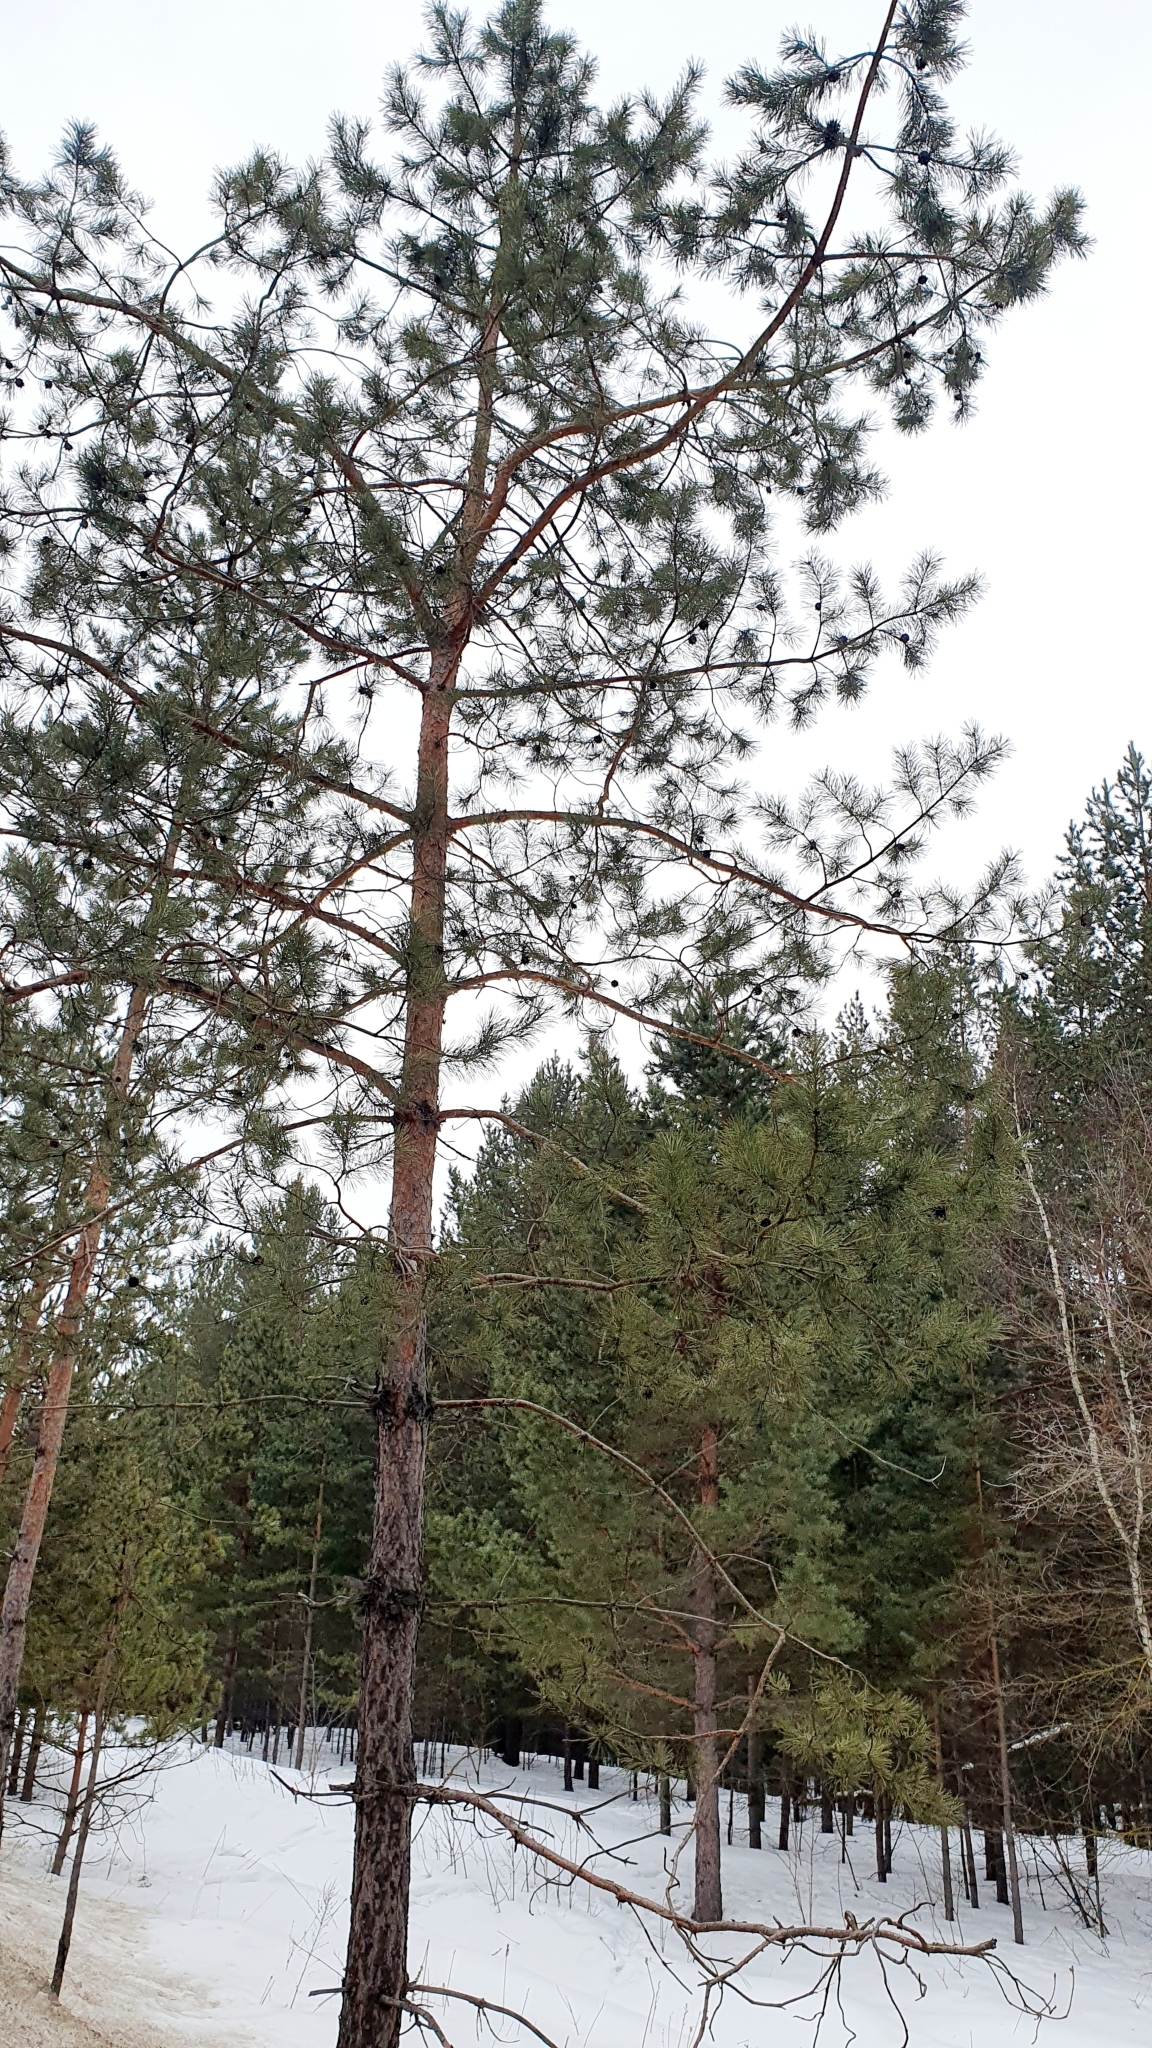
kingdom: Plantae
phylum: Tracheophyta
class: Pinopsida
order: Pinales
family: Pinaceae
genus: Pinus
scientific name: Pinus sylvestris
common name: Scots pine
